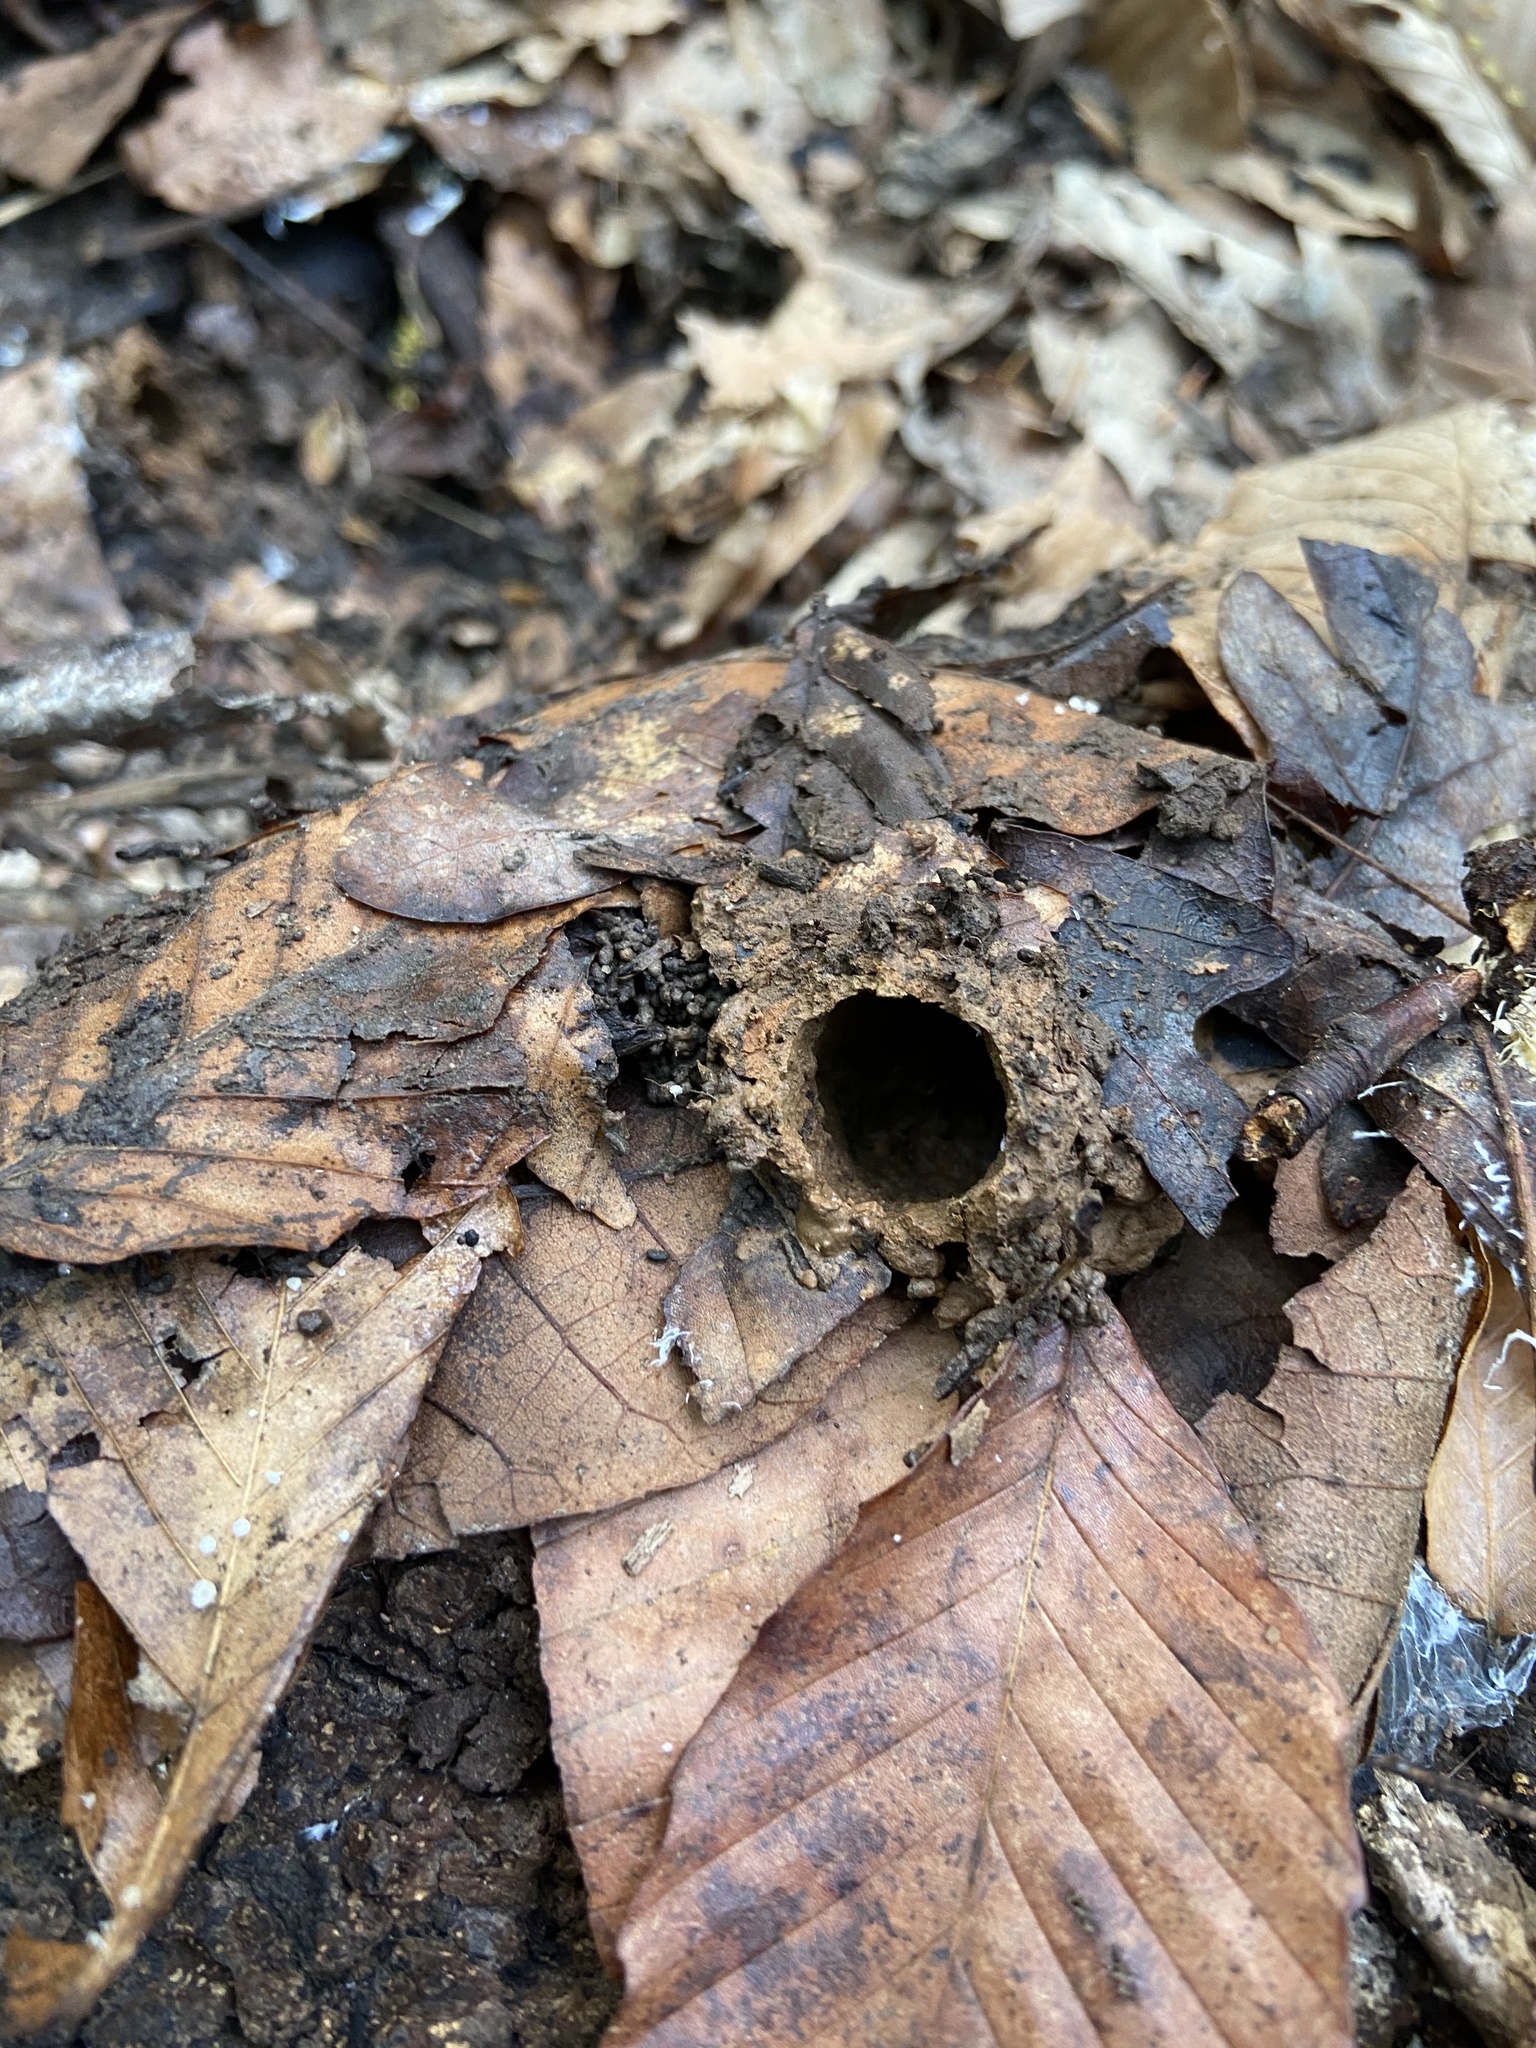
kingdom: Animalia
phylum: Arthropoda
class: Insecta
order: Hemiptera
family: Cicadidae
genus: Magicicada
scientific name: Magicicada
